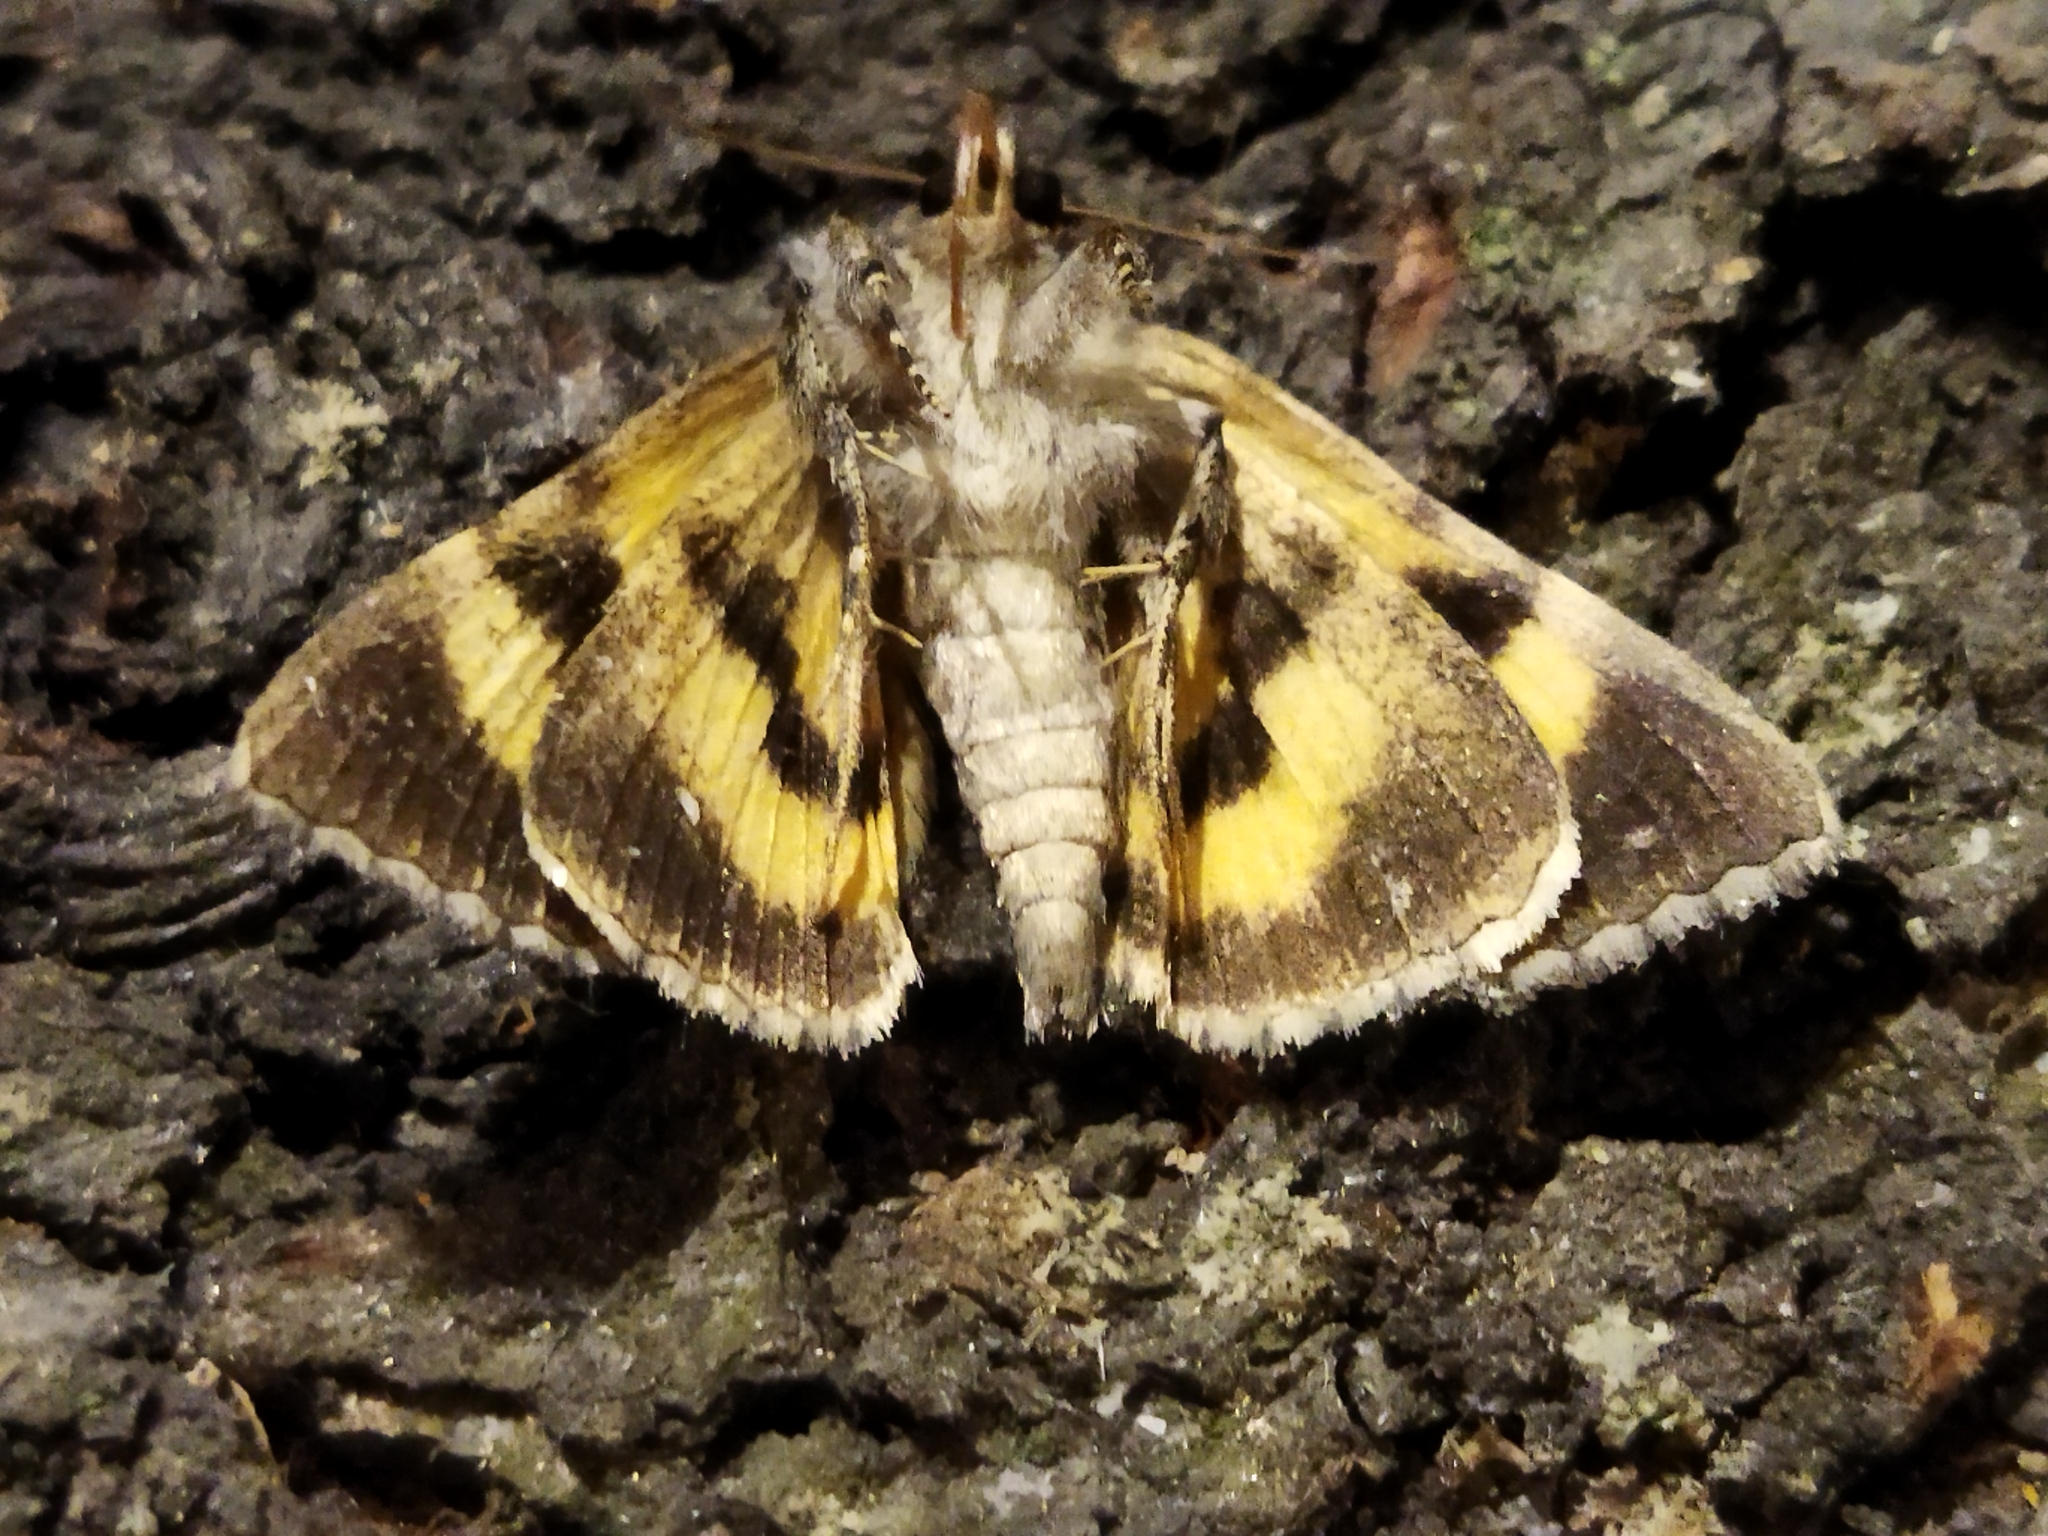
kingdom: Animalia
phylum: Arthropoda
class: Insecta
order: Lepidoptera
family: Erebidae
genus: Catocala
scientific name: Catocala hymenaea
